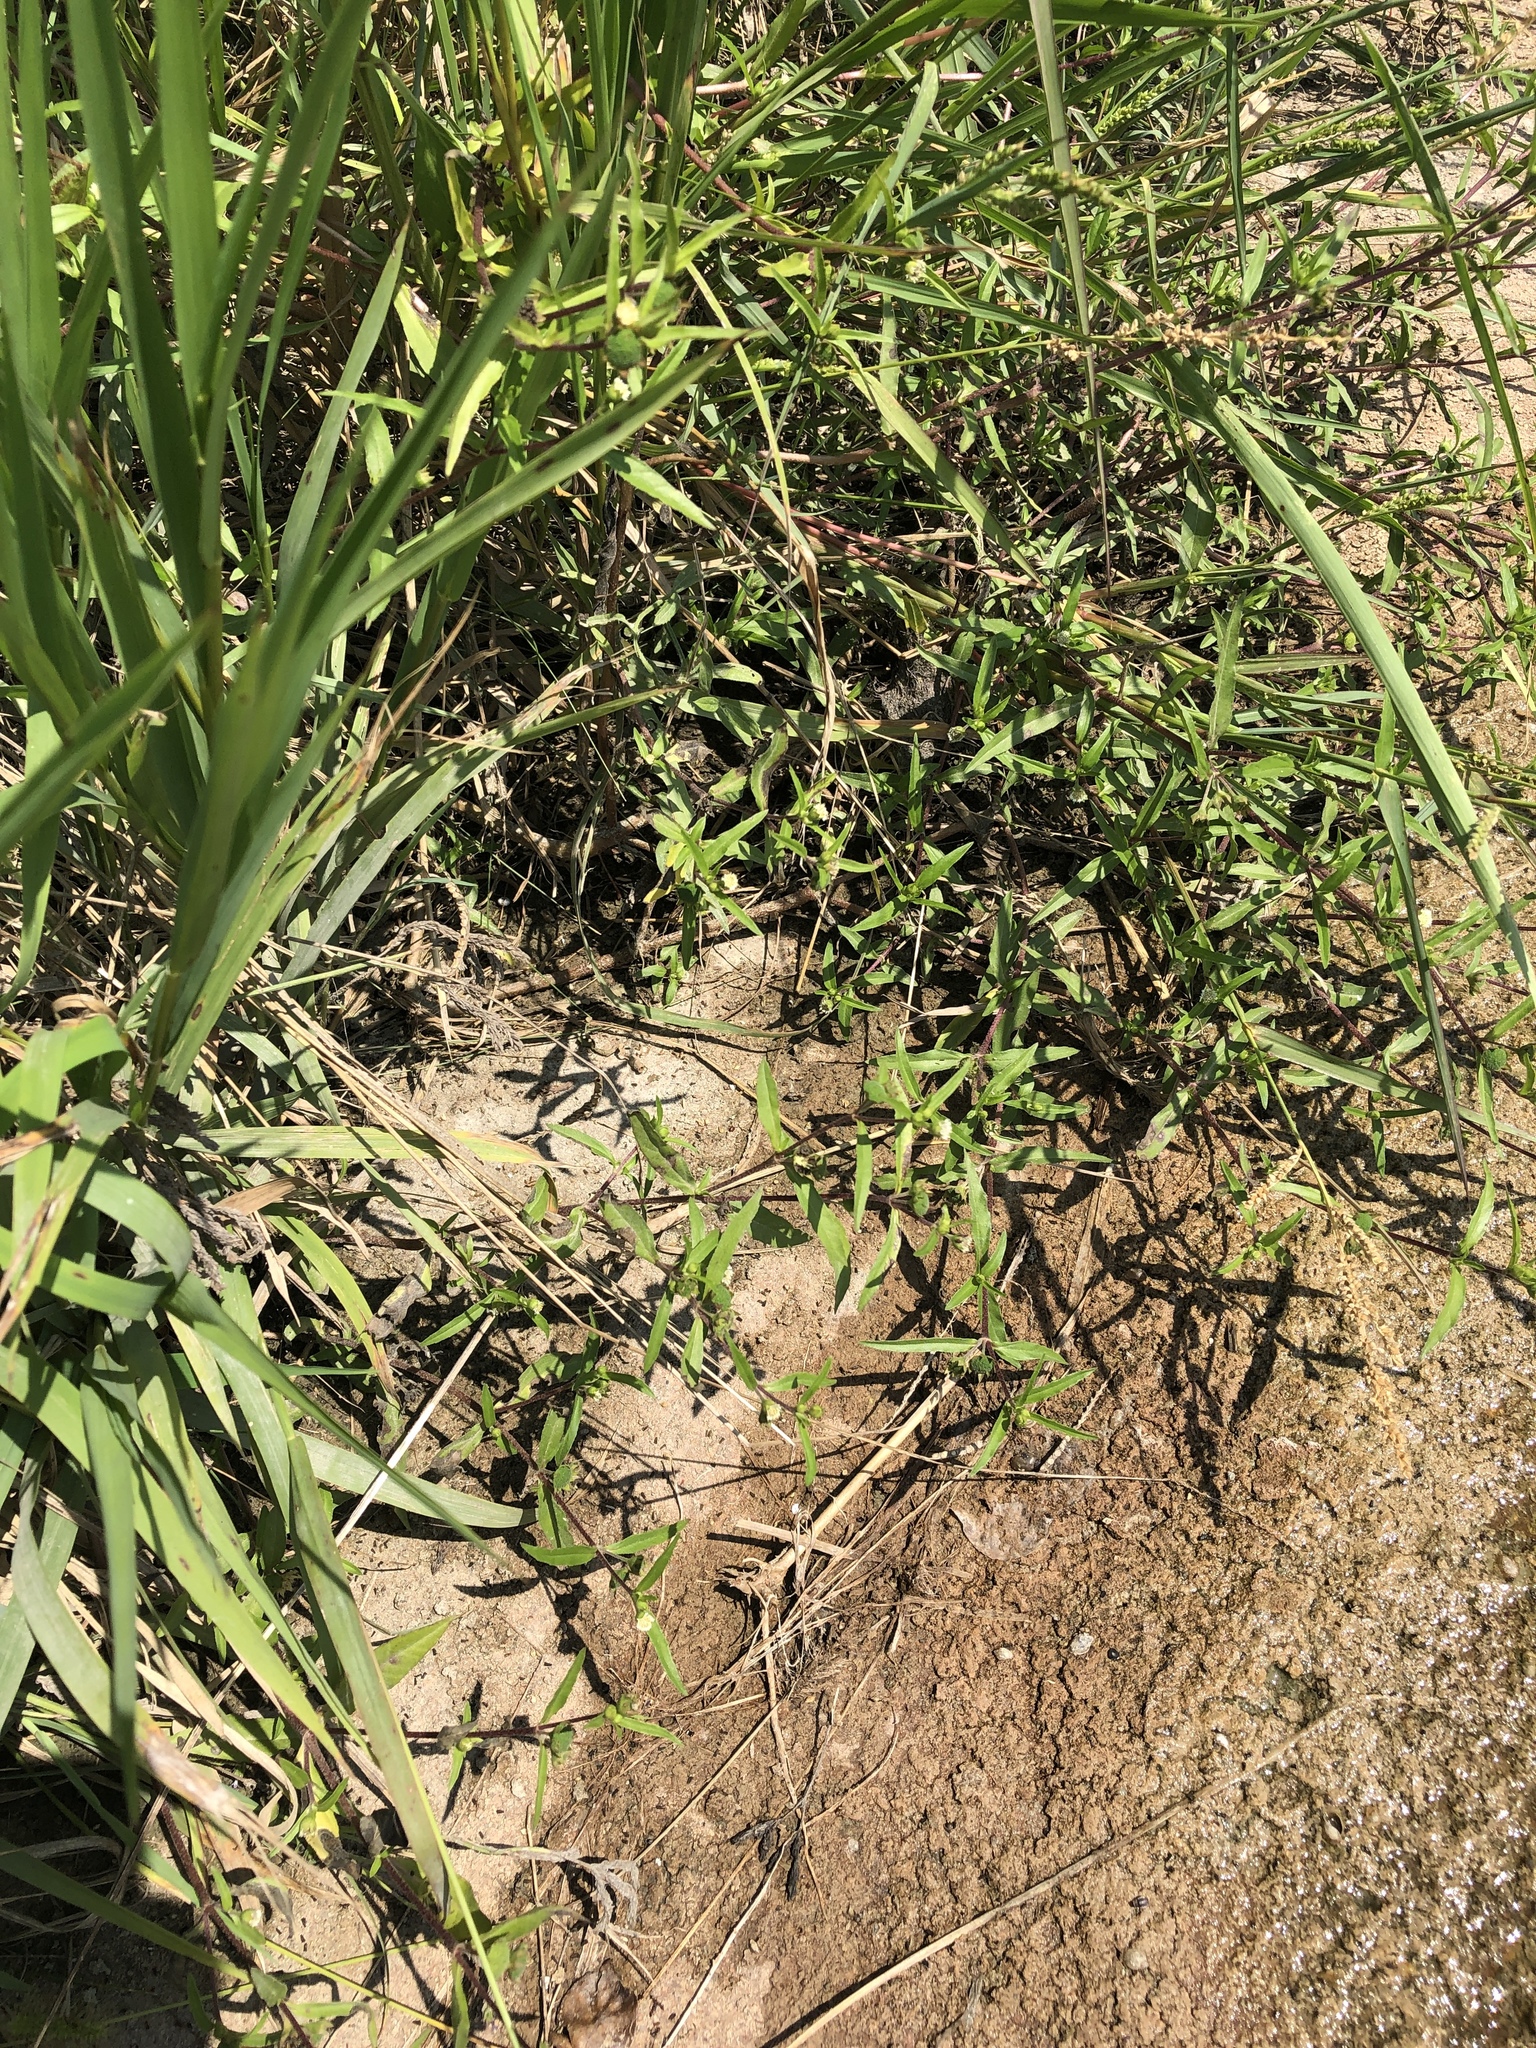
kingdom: Plantae
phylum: Tracheophyta
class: Magnoliopsida
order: Asterales
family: Asteraceae
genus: Eclipta
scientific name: Eclipta prostrata
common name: False daisy
